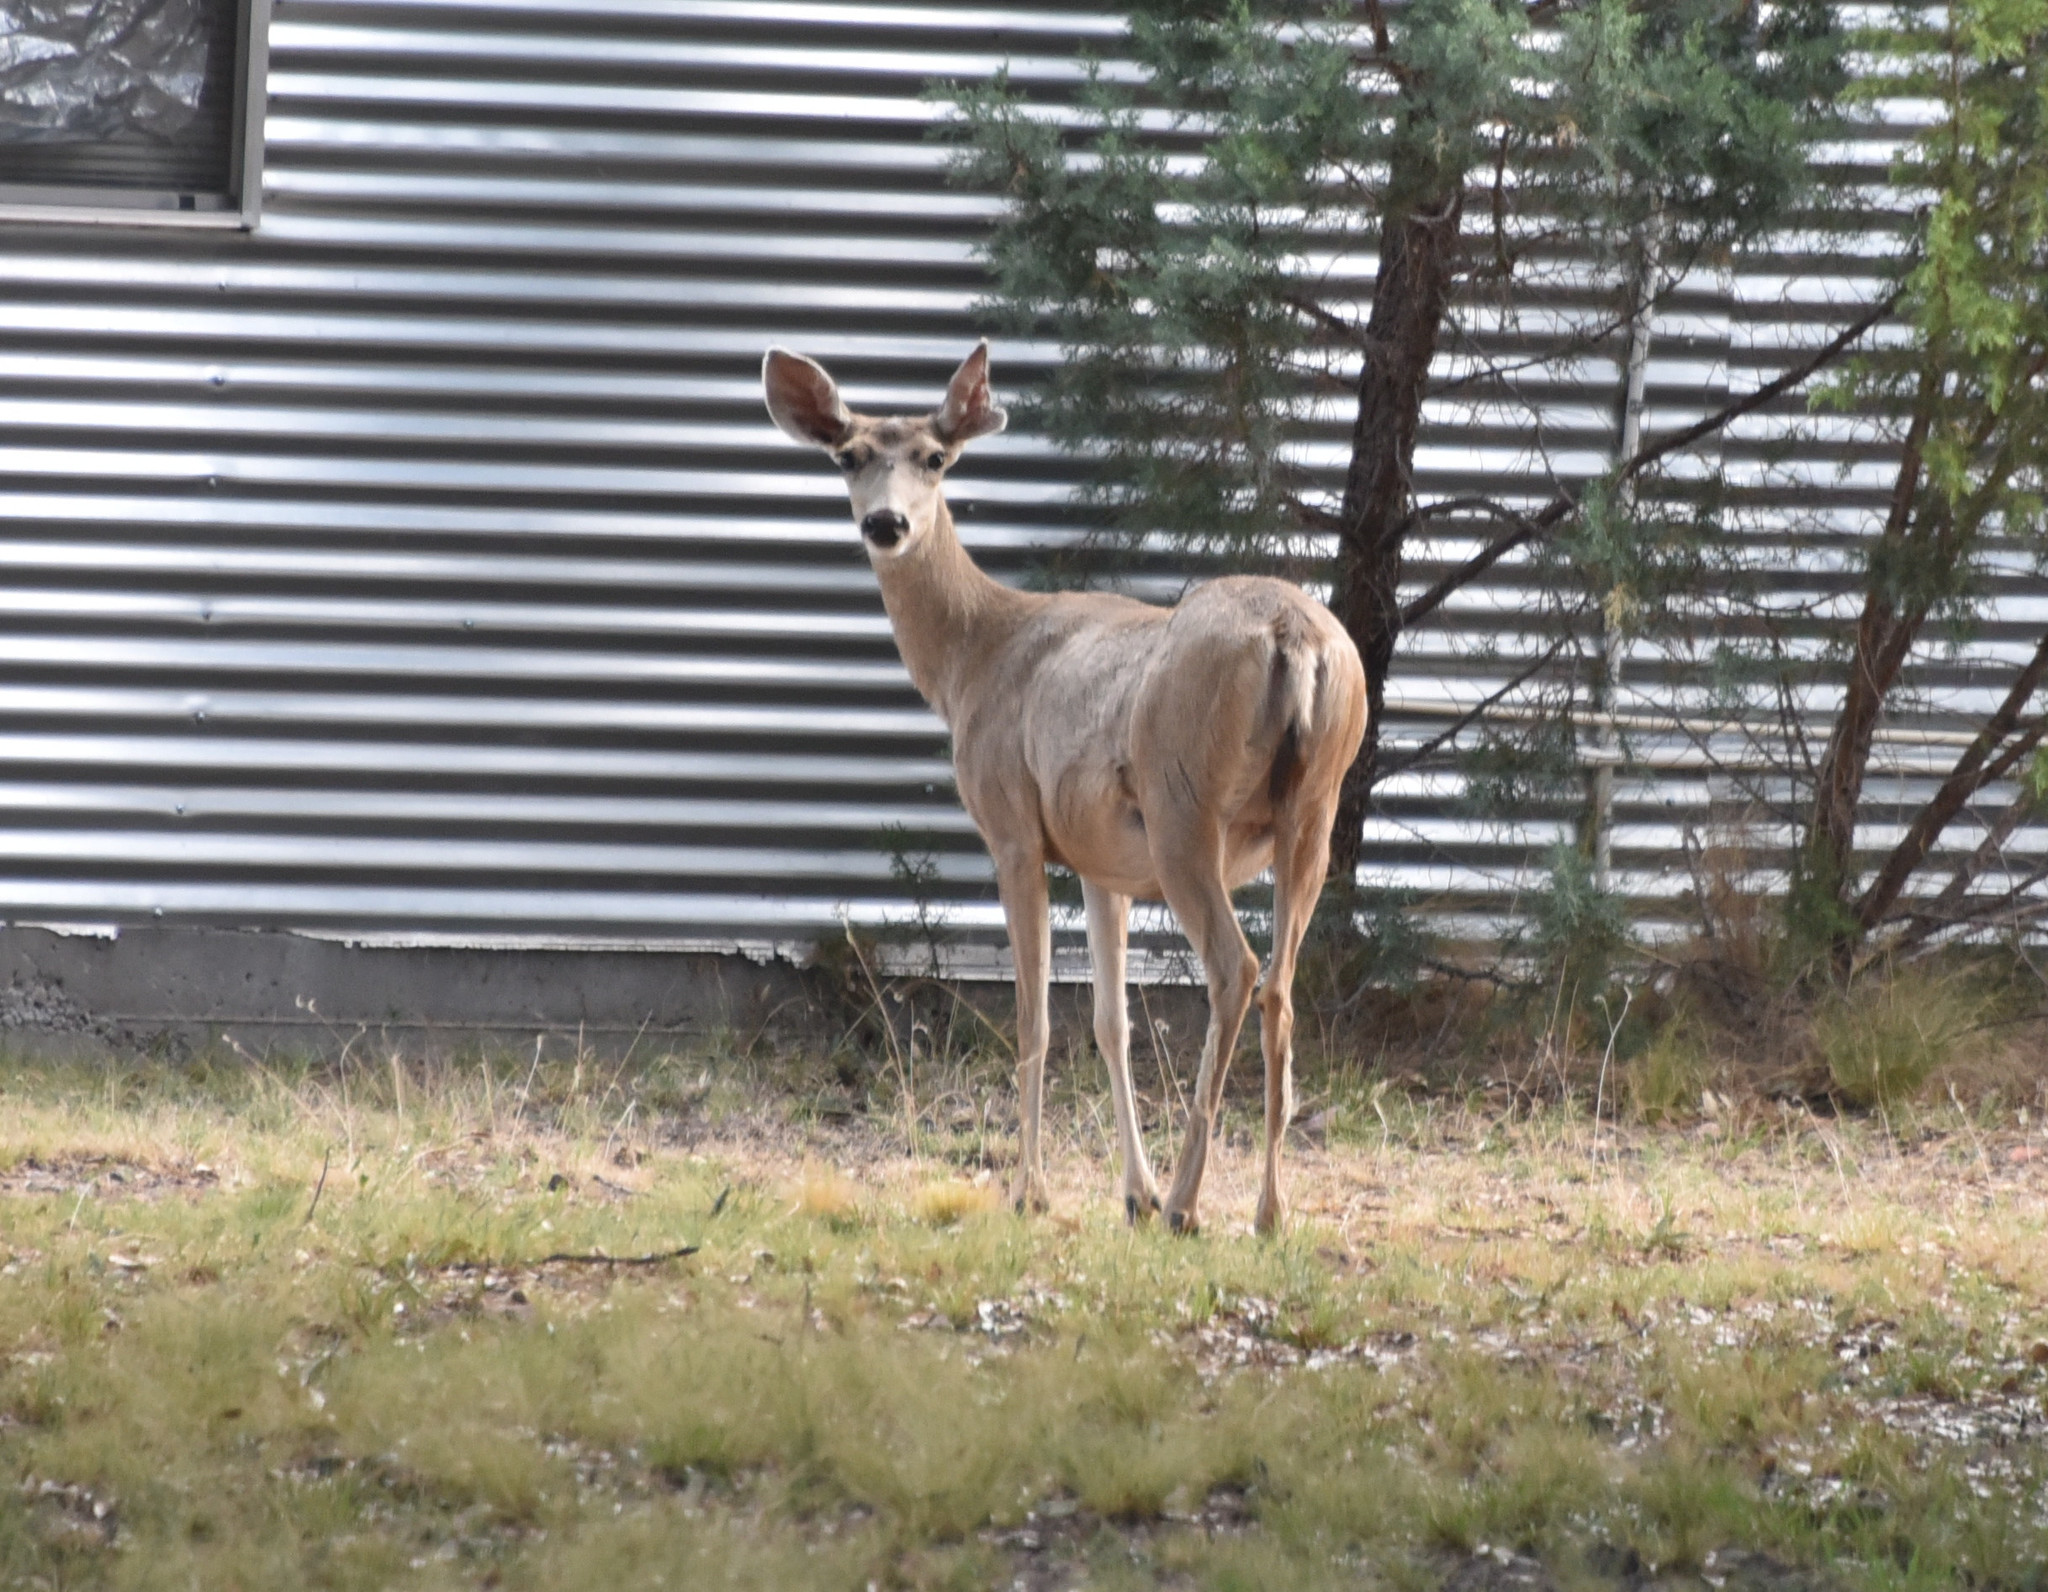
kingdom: Animalia
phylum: Chordata
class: Mammalia
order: Artiodactyla
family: Cervidae
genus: Odocoileus
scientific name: Odocoileus hemionus
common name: Mule deer
